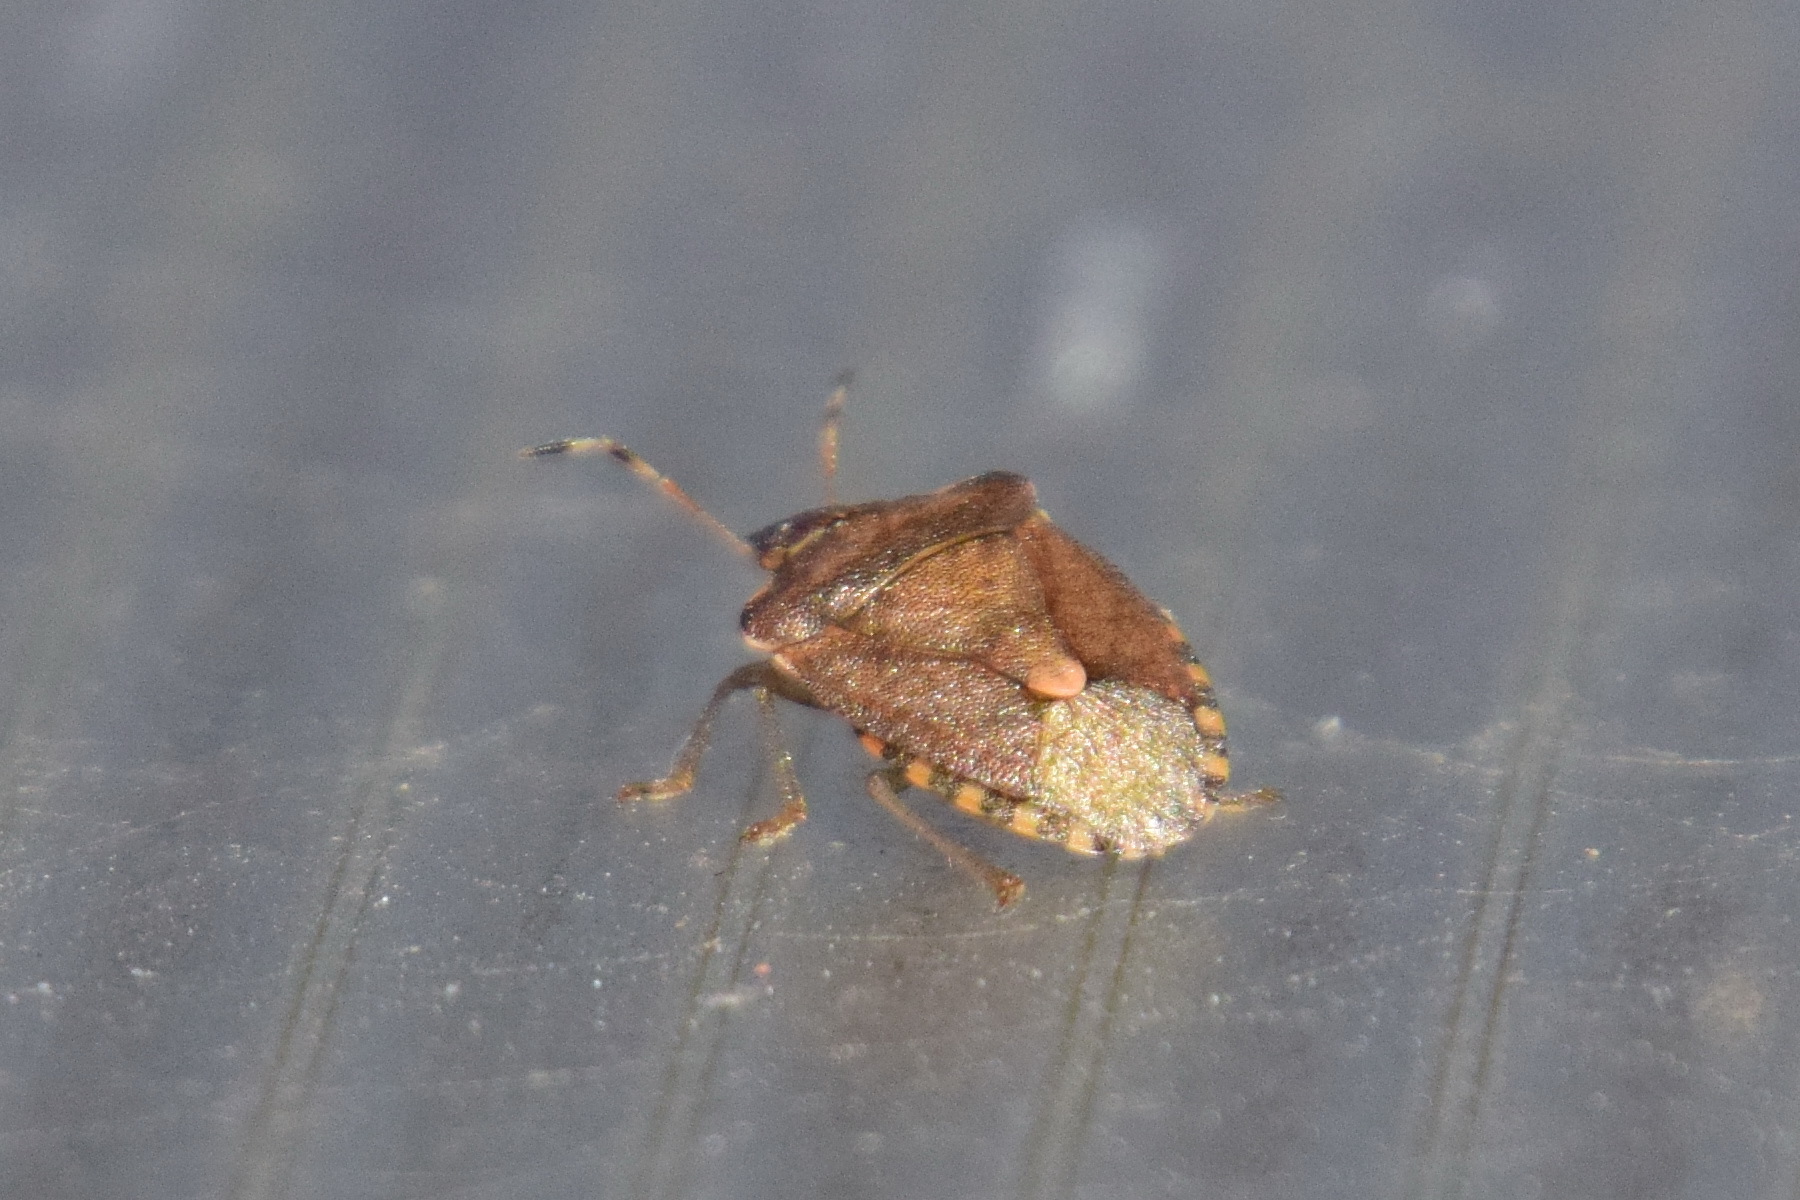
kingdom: Animalia
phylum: Arthropoda
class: Insecta
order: Hemiptera
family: Pentatomidae
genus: Holcostethus
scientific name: Holcostethus strictus
